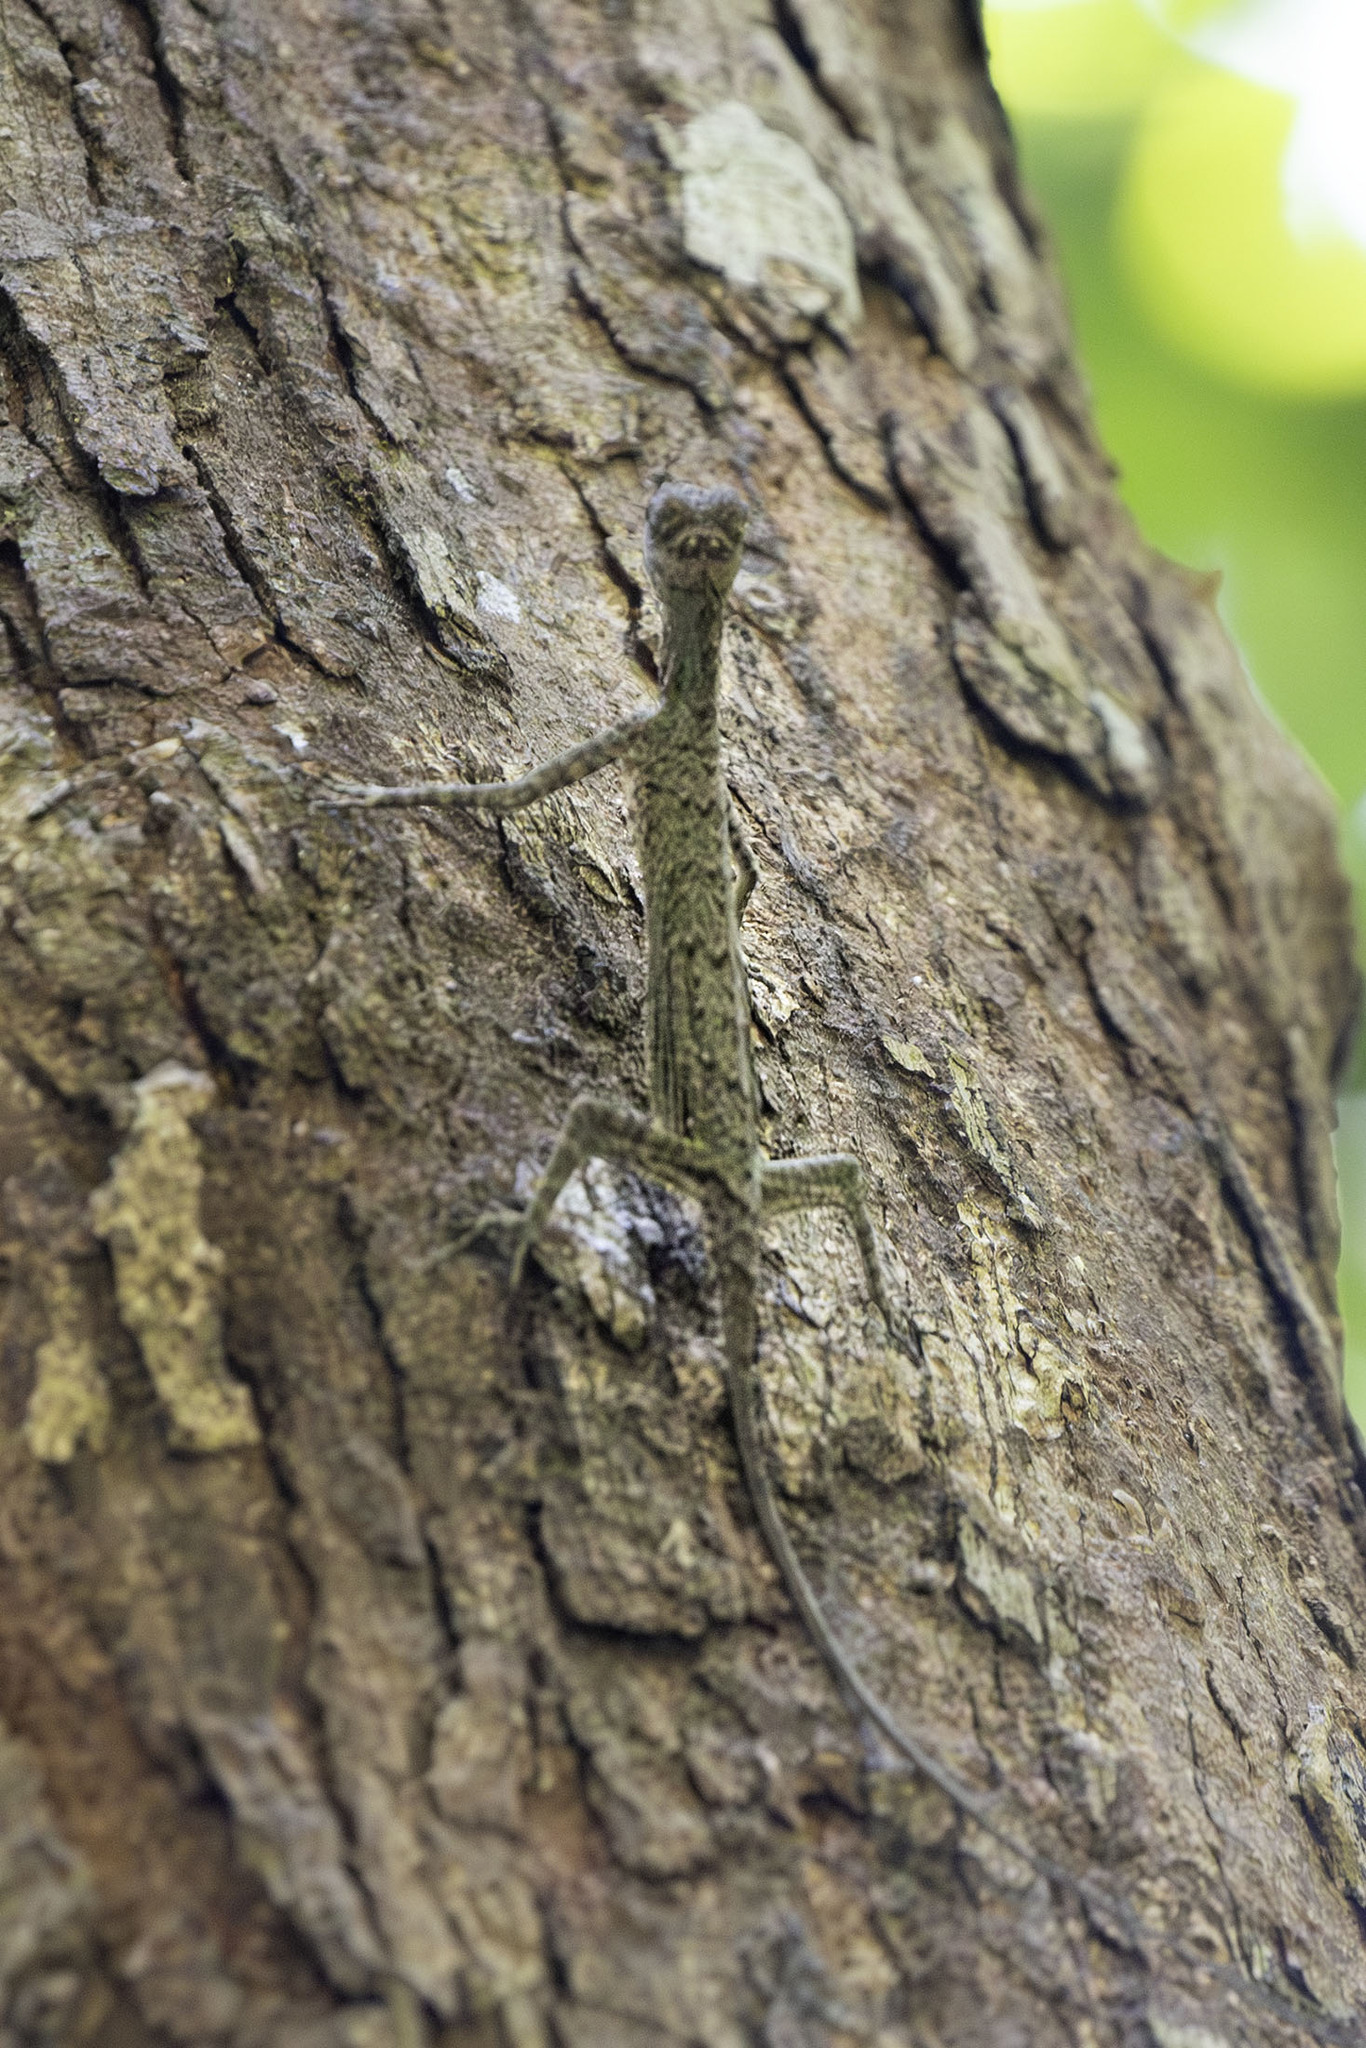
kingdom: Animalia
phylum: Chordata
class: Squamata
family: Agamidae
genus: Draco
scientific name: Draco melanopogon
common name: Black-barbed flying dragon
